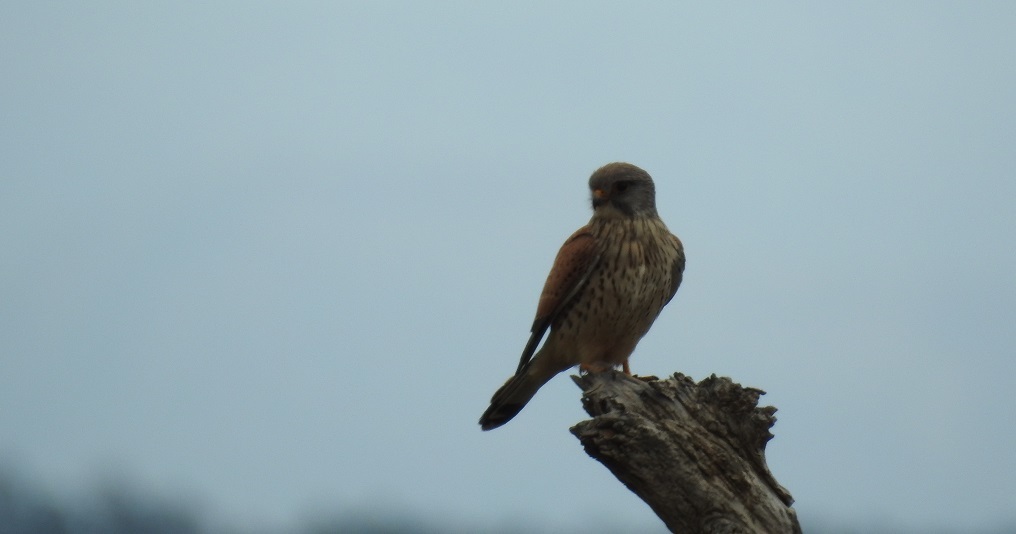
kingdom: Animalia
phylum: Chordata
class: Aves
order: Falconiformes
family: Falconidae
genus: Falco
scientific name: Falco tinnunculus
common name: Common kestrel
